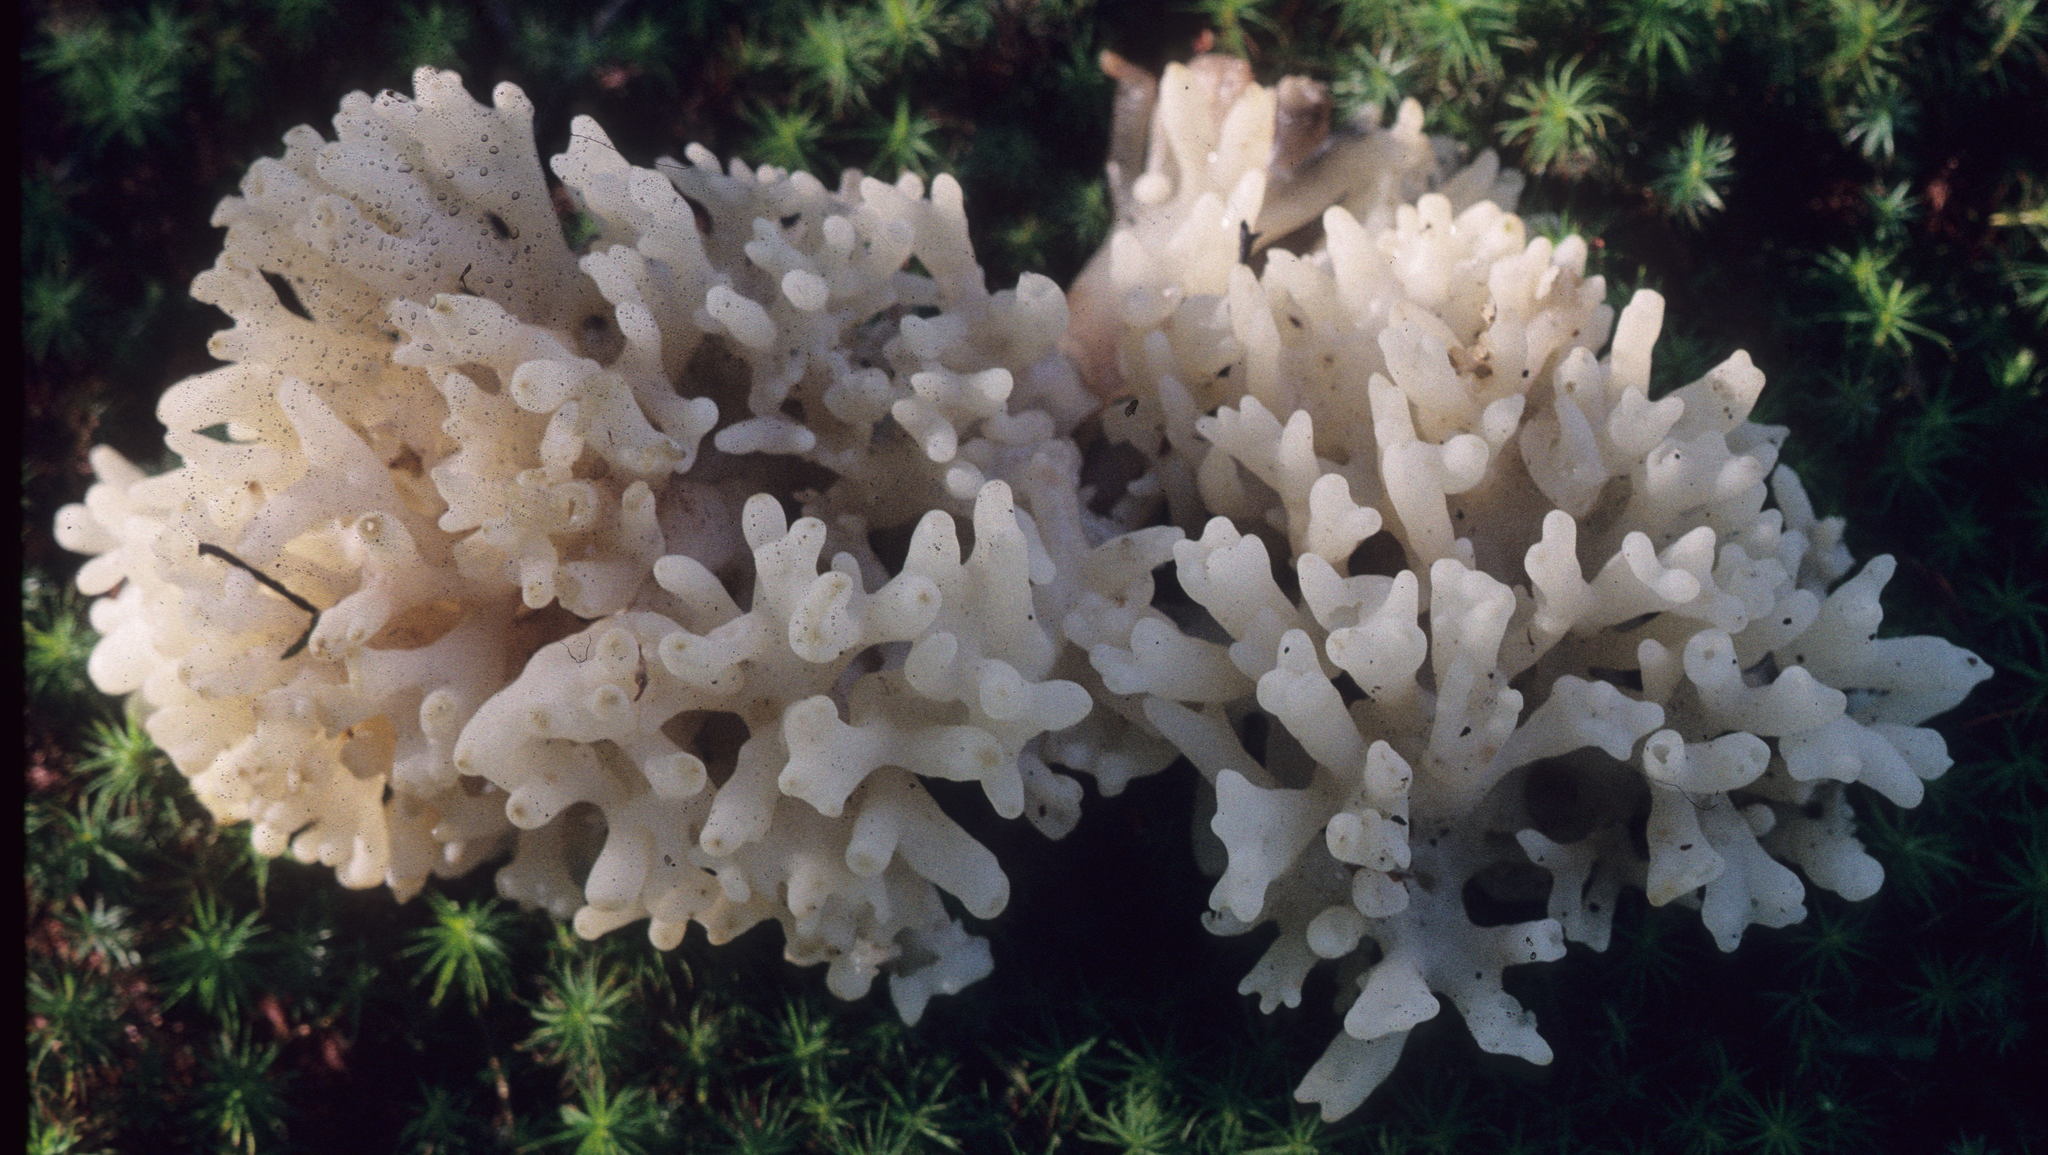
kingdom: Fungi
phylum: Basidiomycota
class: Agaricomycetes
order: Sebacinales
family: Sebacinaceae
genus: Sebacina
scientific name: Sebacina sparassoidea
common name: White coral jelly fungus
